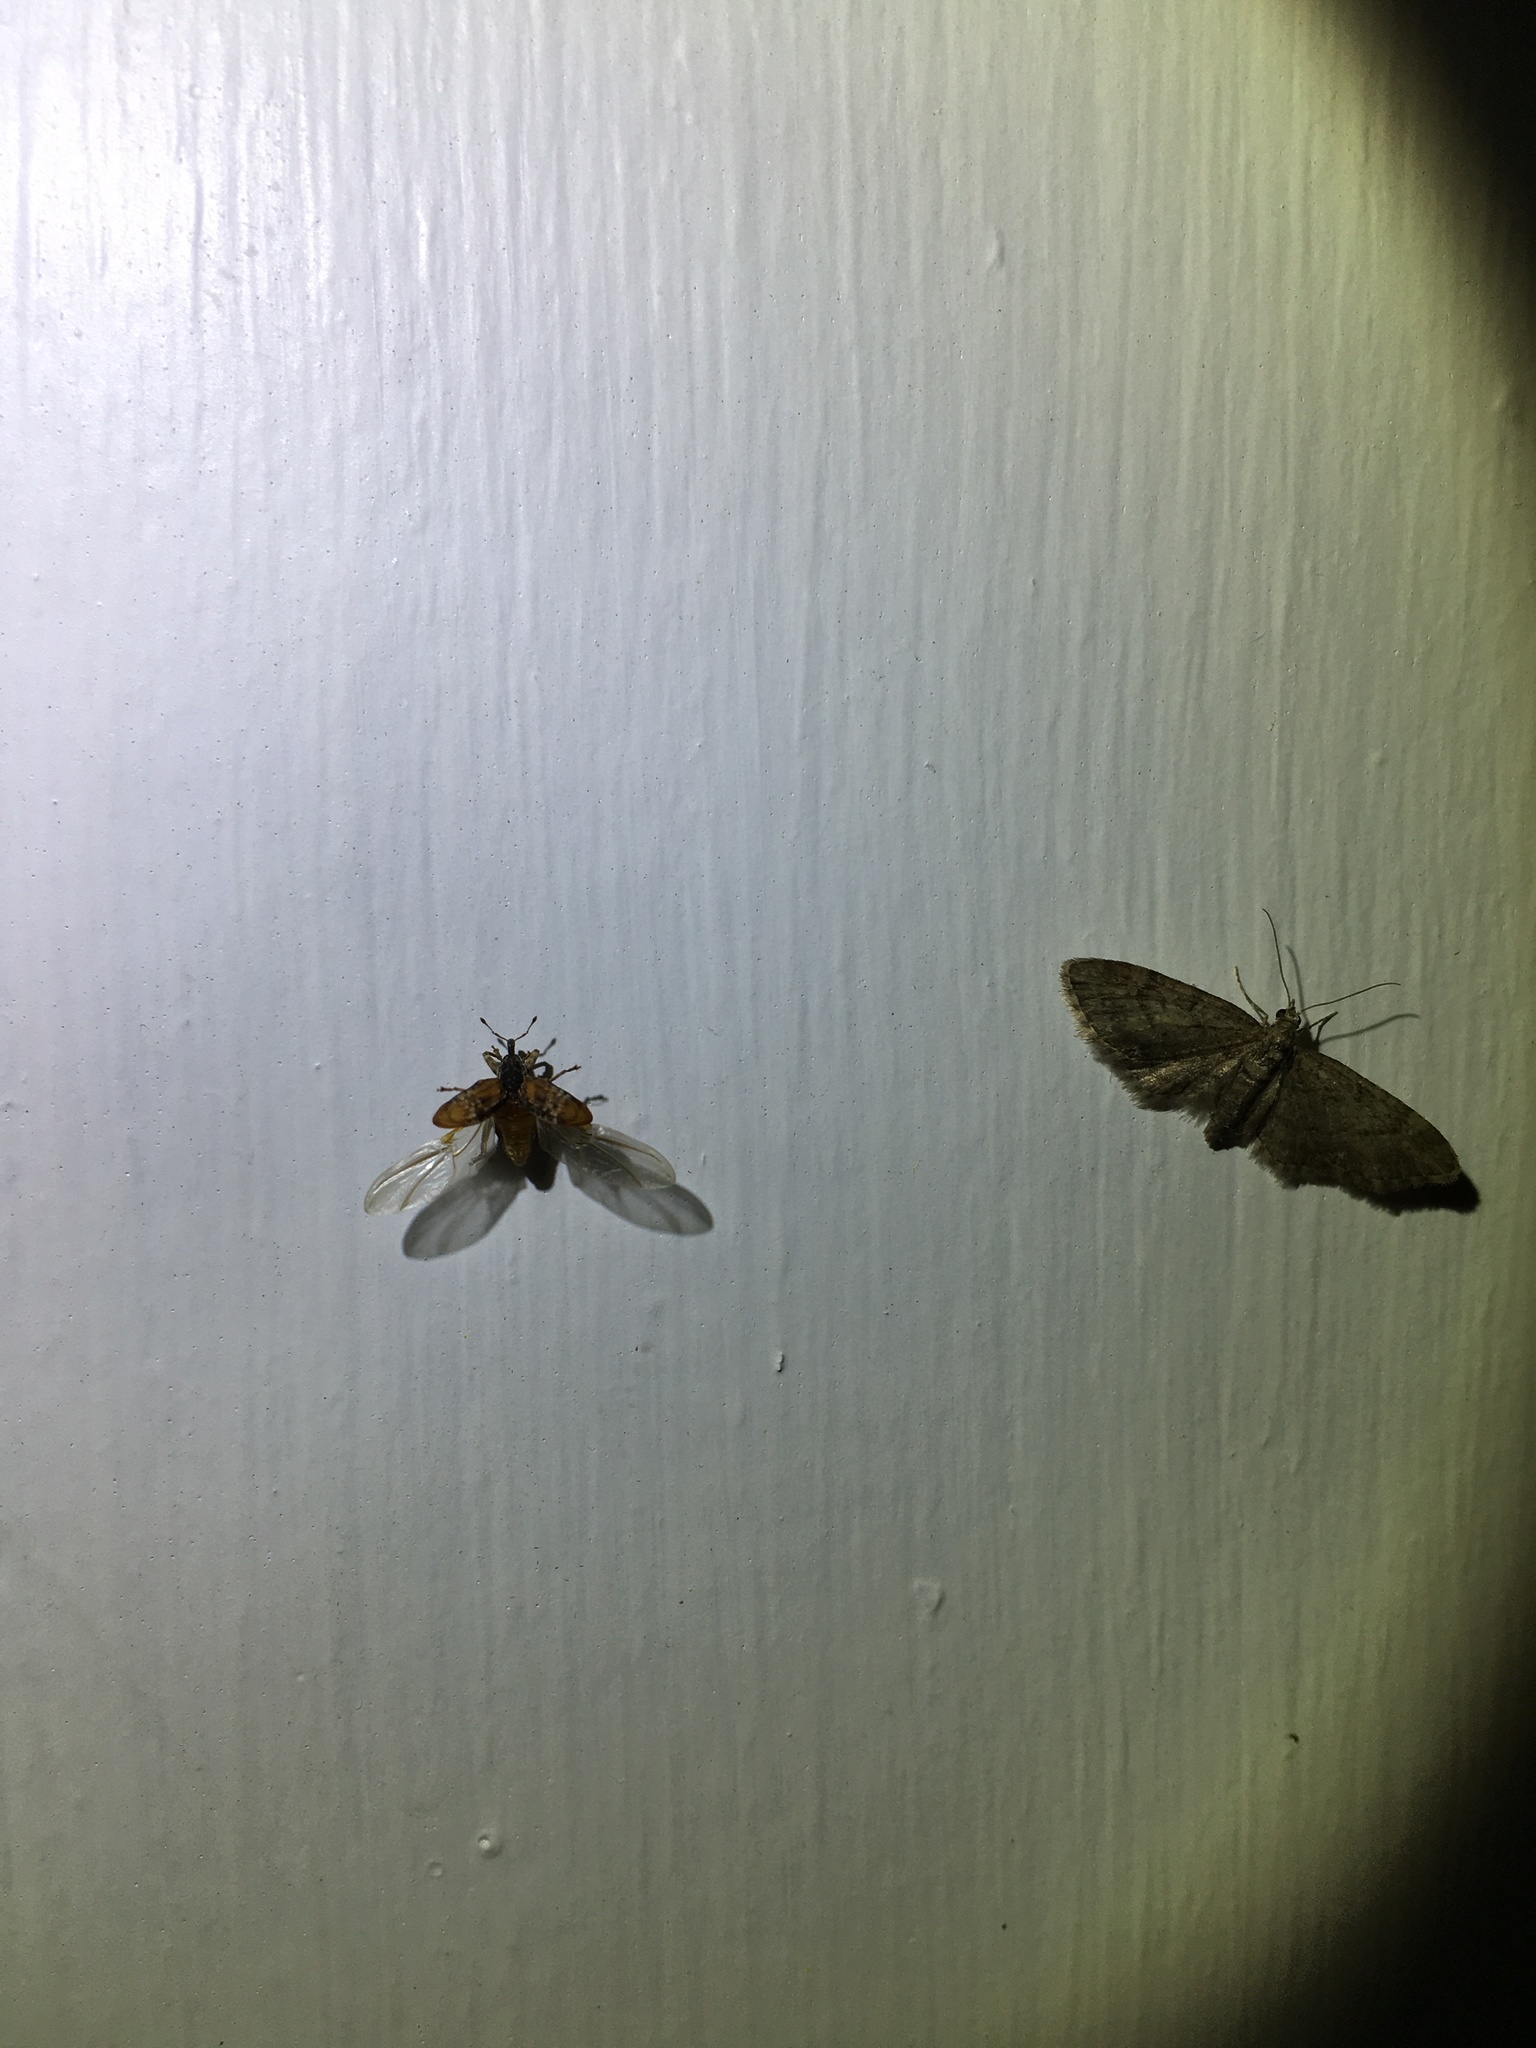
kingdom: Animalia
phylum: Arthropoda
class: Insecta
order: Coleoptera
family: Curculionidae
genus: Conotrachelus
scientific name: Conotrachelus anaglypticus
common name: Cambium curculio
